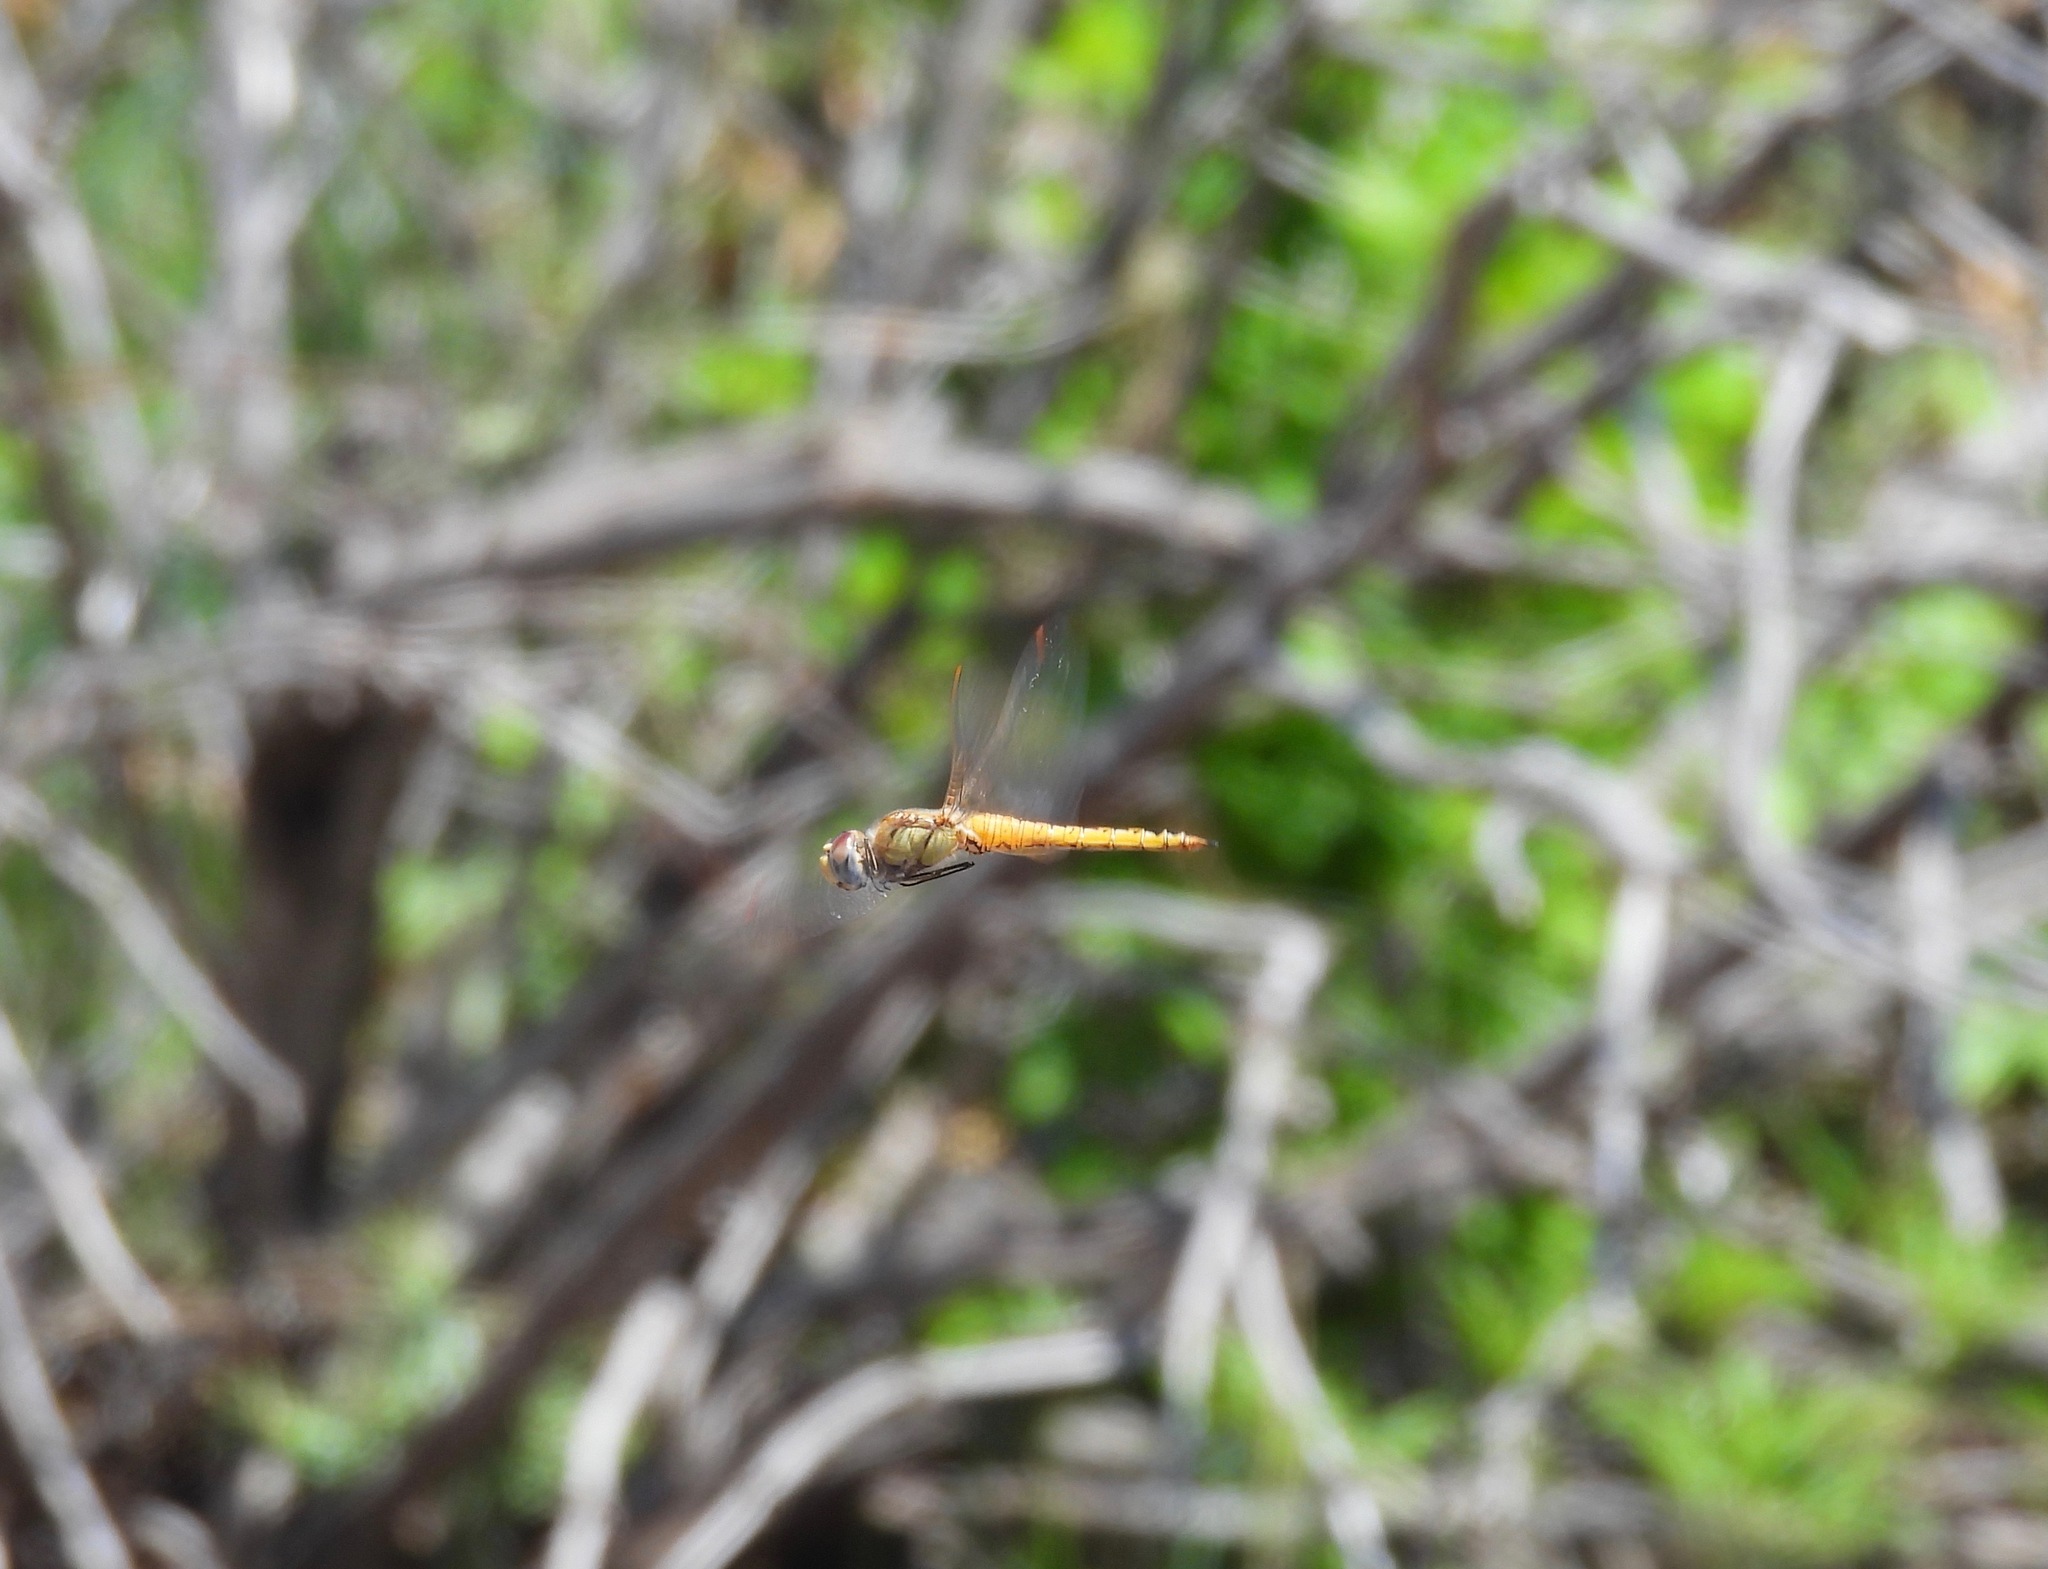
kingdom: Animalia
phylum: Arthropoda
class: Insecta
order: Odonata
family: Libellulidae
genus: Pantala
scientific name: Pantala flavescens
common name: Wandering glider
